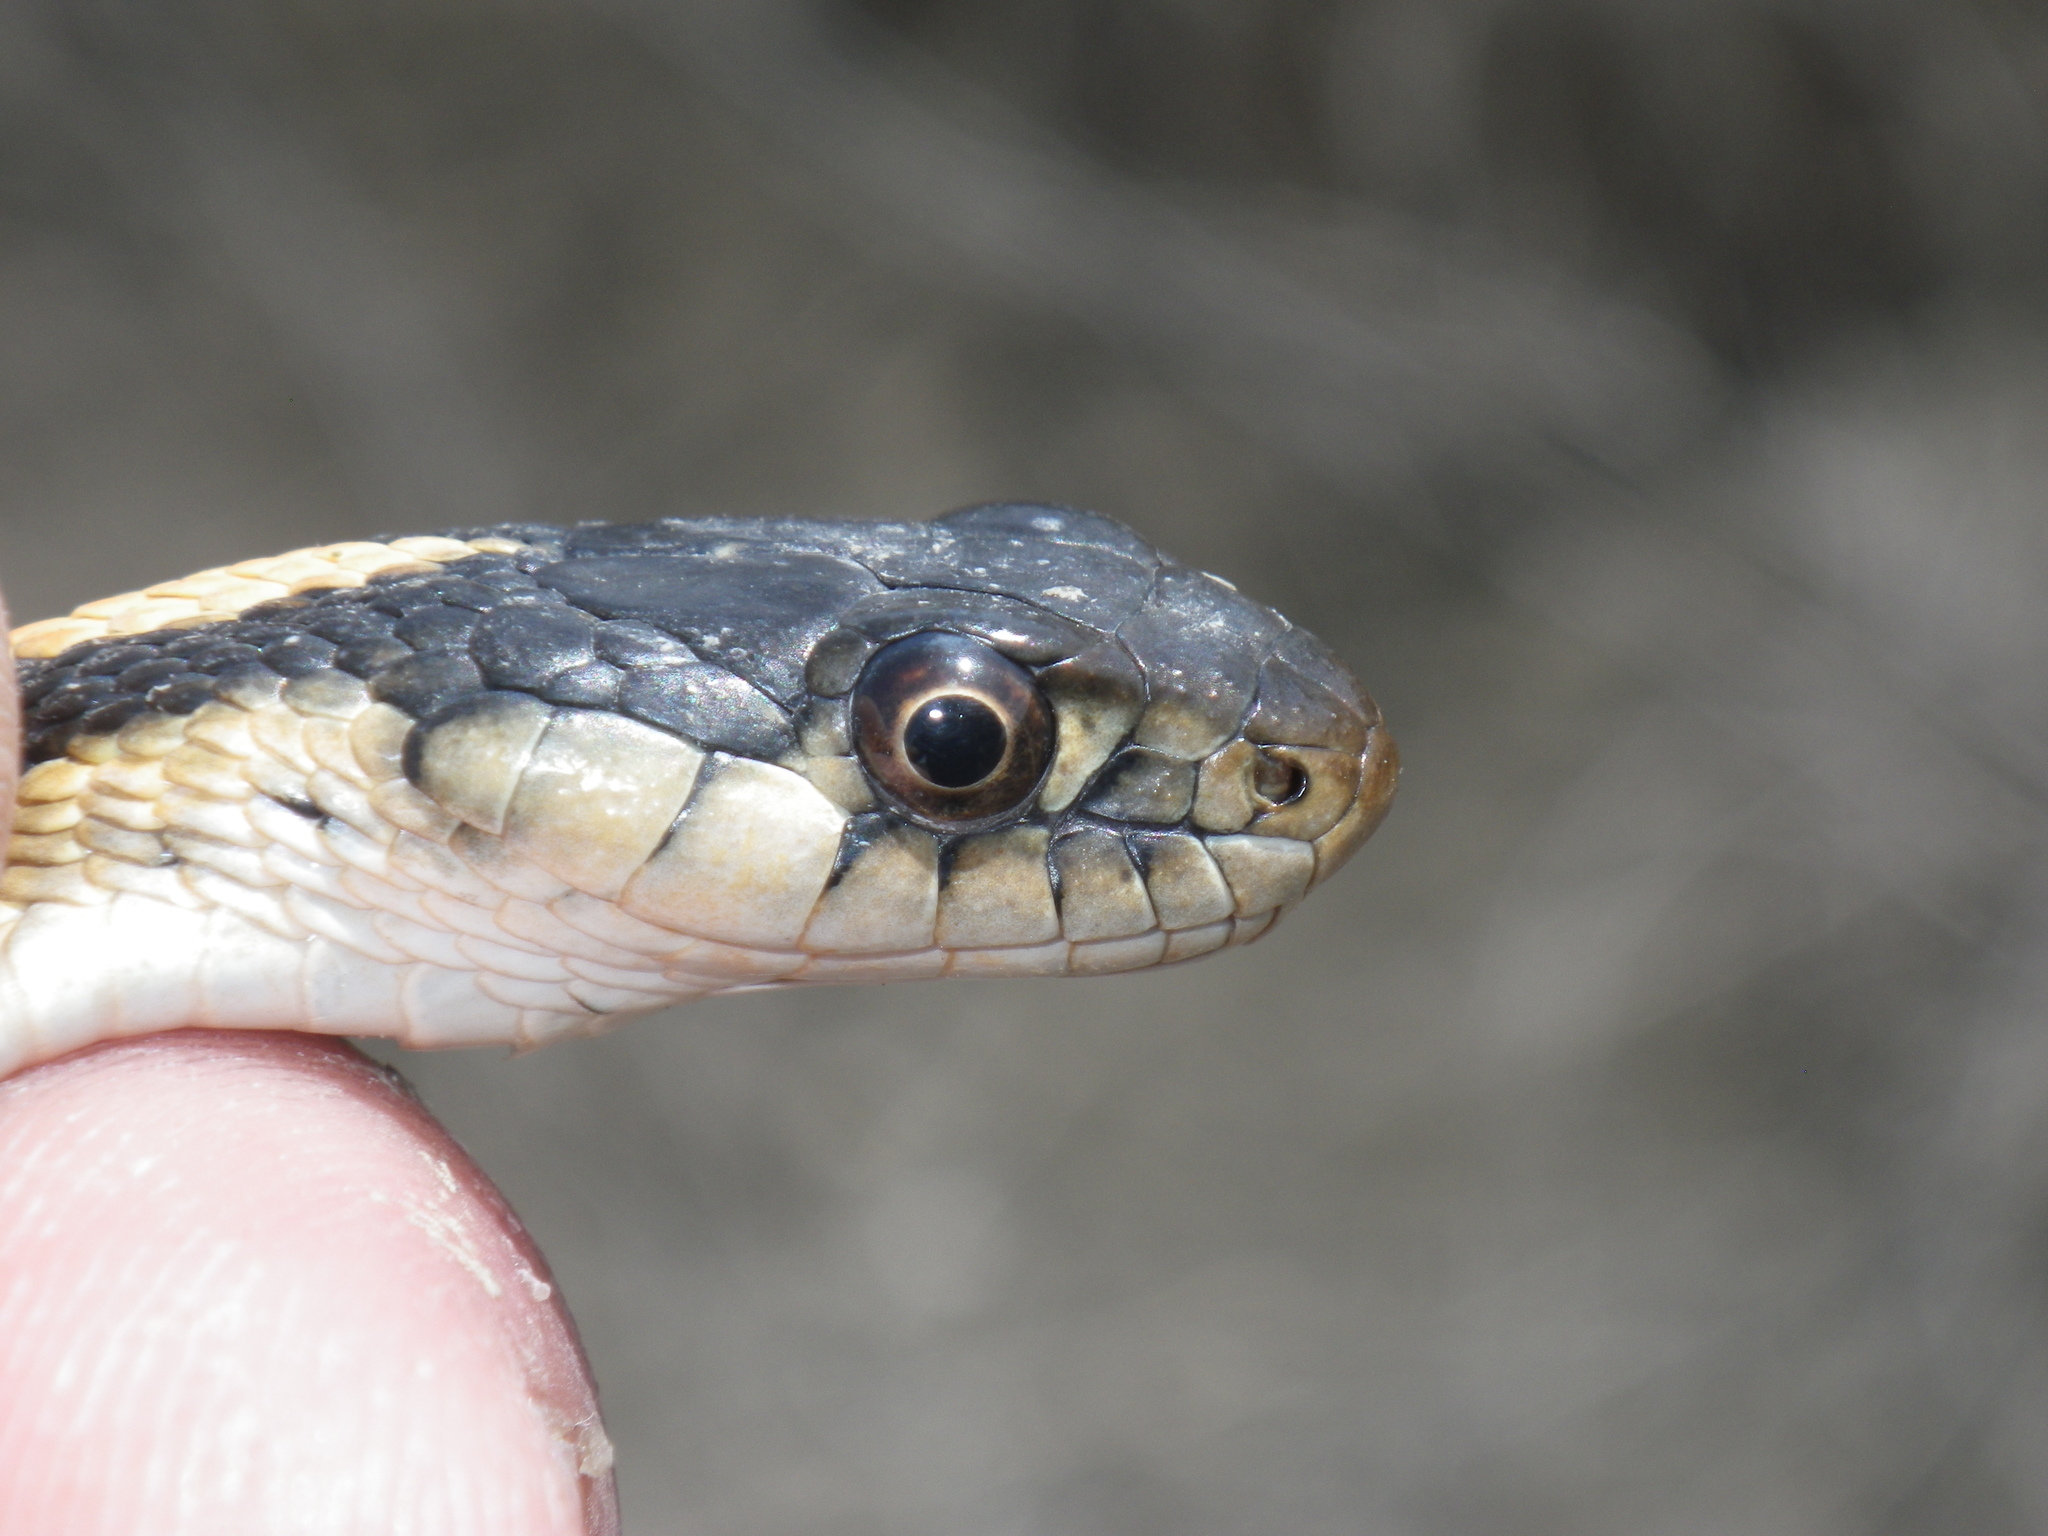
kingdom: Animalia
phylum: Chordata
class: Squamata
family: Colubridae
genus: Thamnophis
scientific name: Thamnophis elegans
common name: Western terrestrial garter snake
